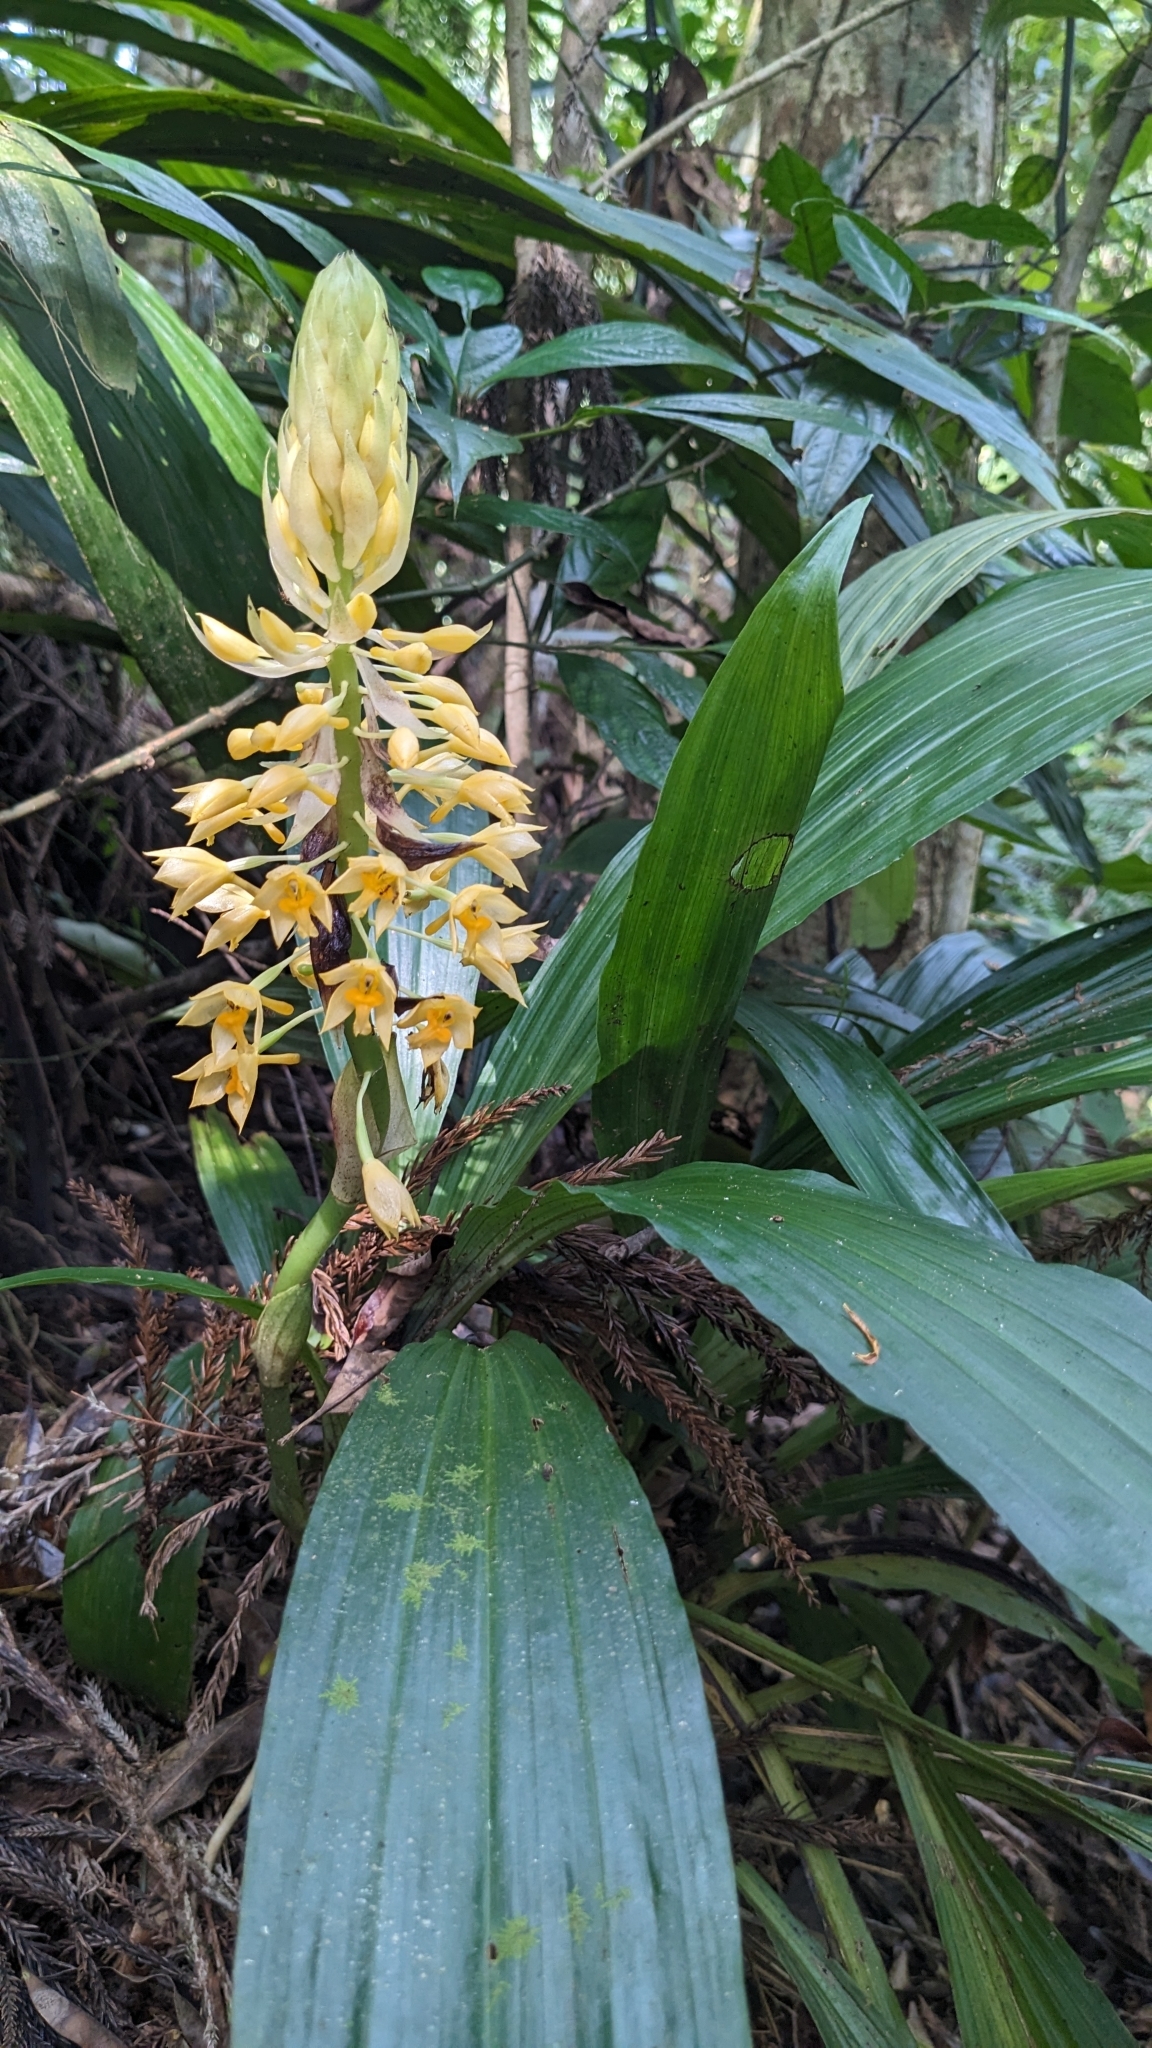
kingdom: Plantae
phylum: Tracheophyta
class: Liliopsida
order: Asparagales
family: Orchidaceae
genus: Calanthe
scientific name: Calanthe formosana
